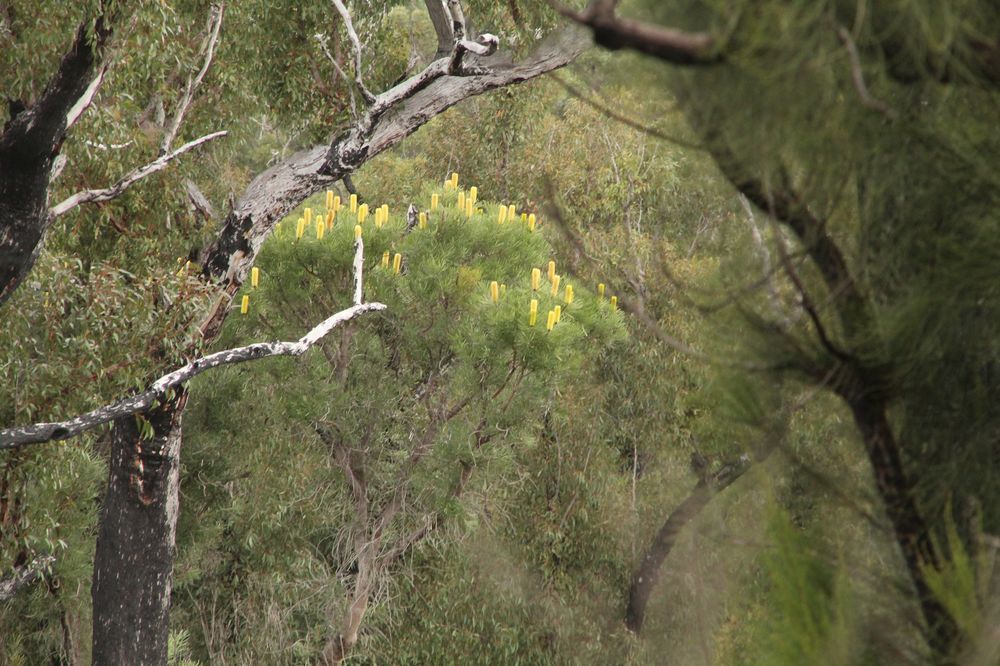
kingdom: Plantae
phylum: Tracheophyta
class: Magnoliopsida
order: Proteales
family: Proteaceae
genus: Banksia
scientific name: Banksia attenuata
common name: Coast banksia
